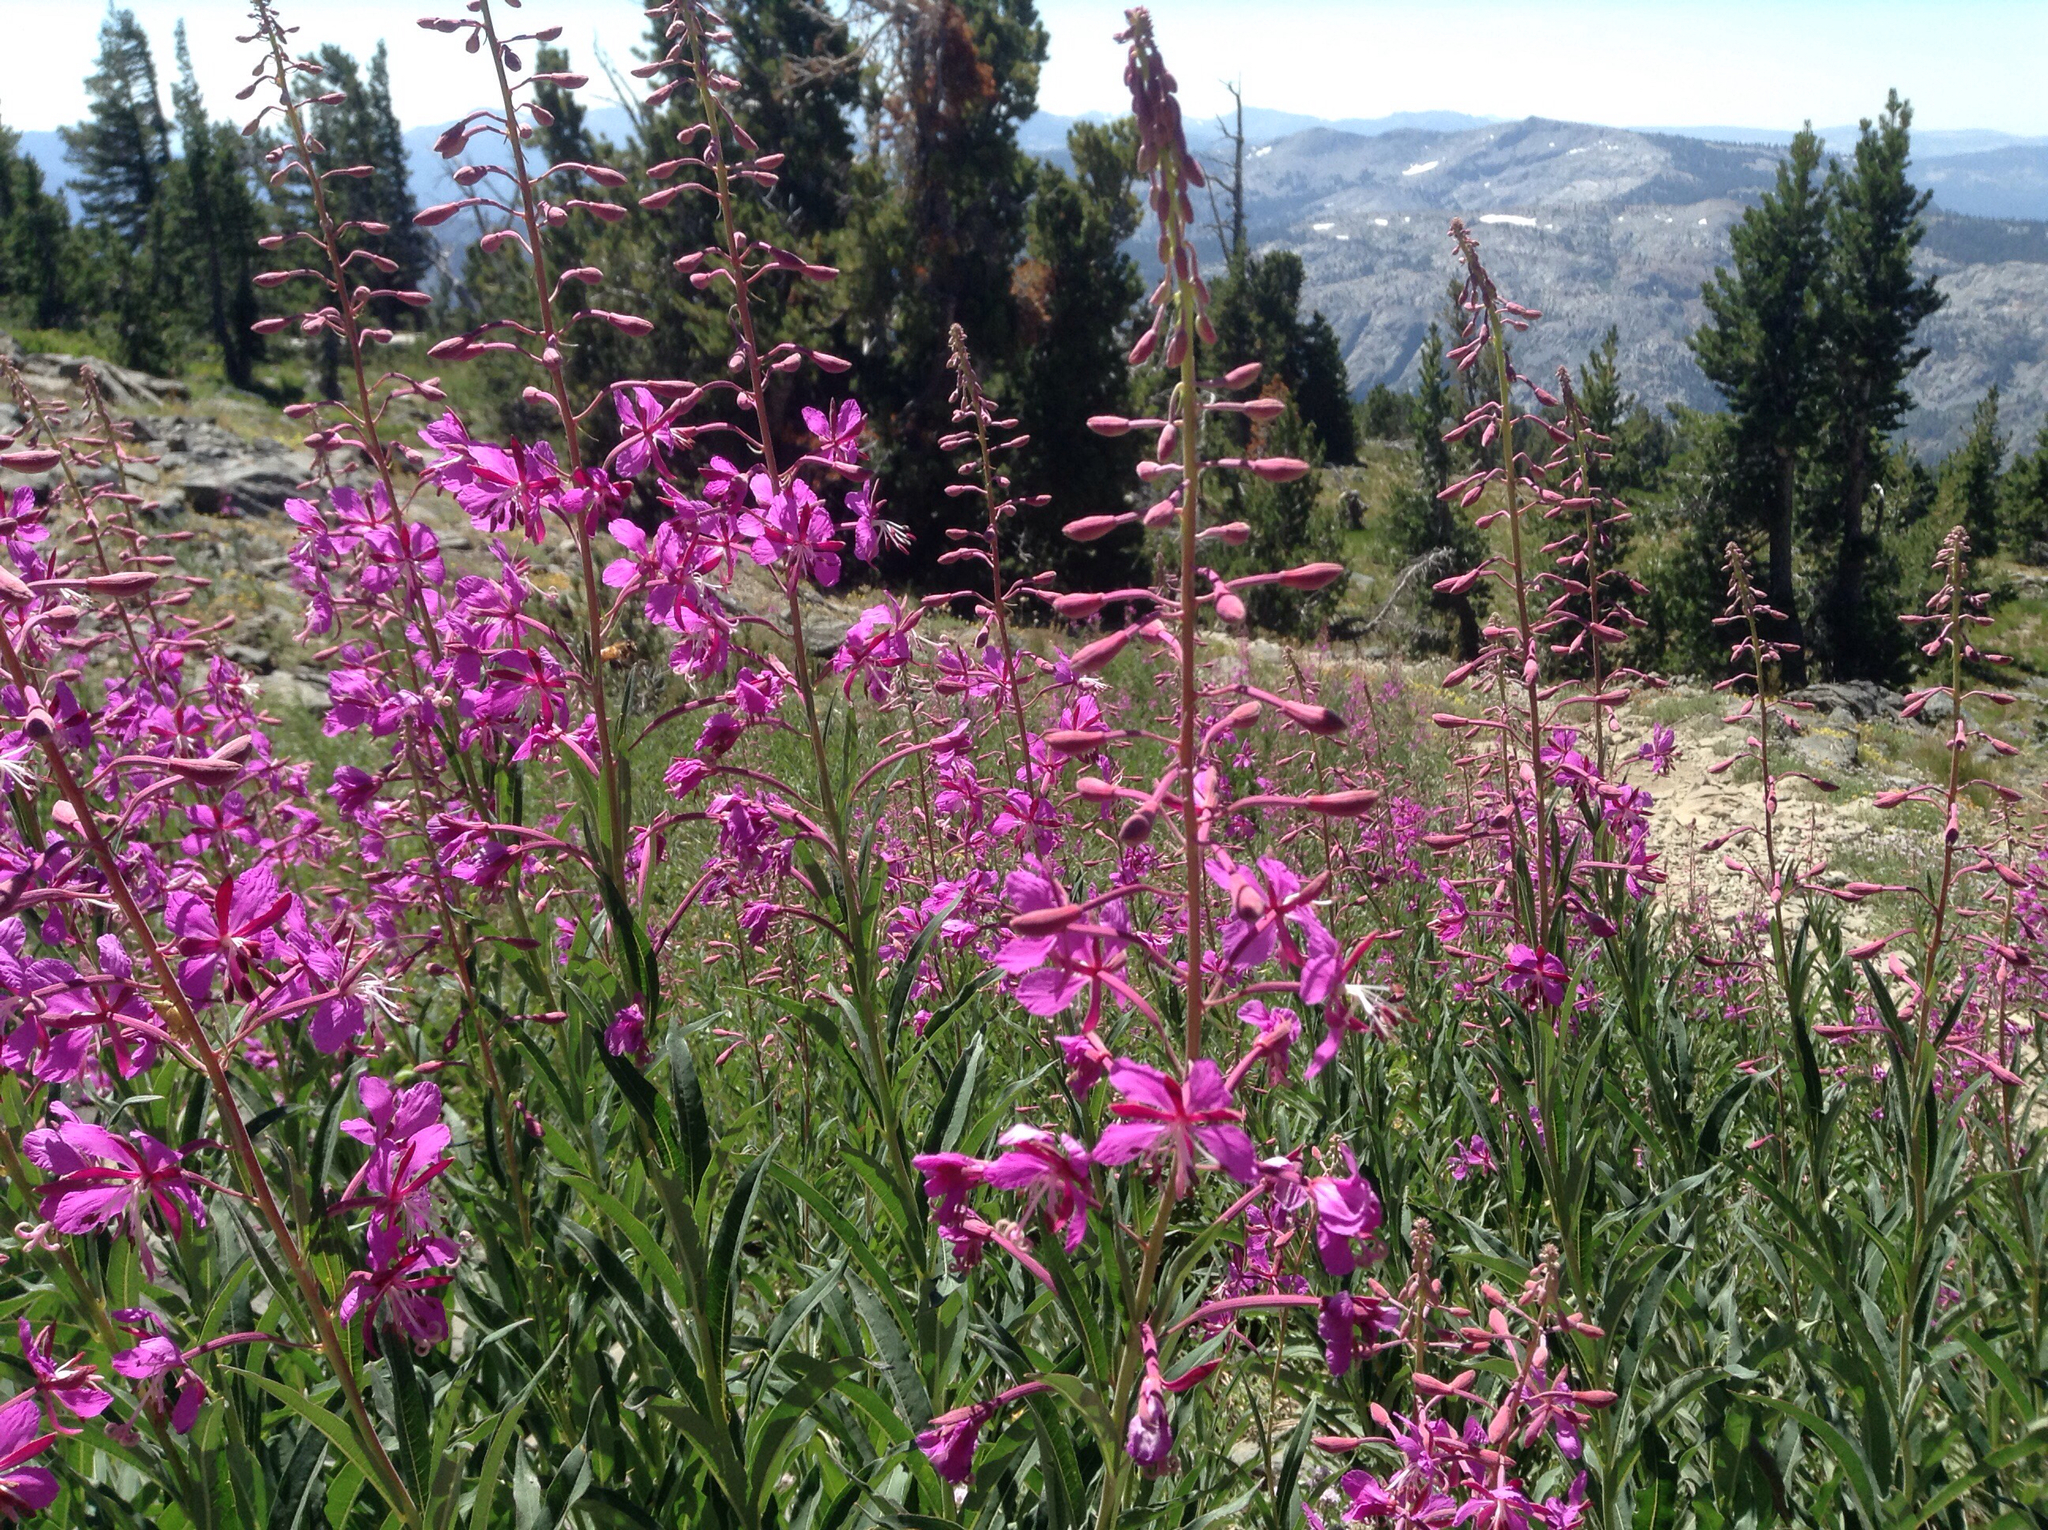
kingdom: Plantae
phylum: Tracheophyta
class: Magnoliopsida
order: Myrtales
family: Onagraceae
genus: Chamaenerion
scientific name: Chamaenerion angustifolium
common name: Fireweed
